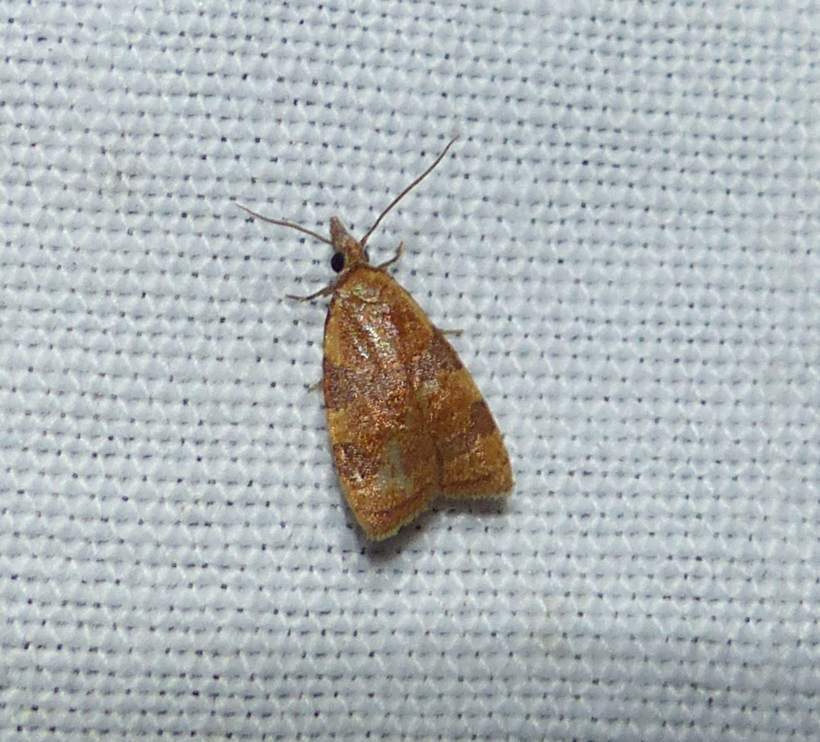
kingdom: Animalia
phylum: Arthropoda
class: Insecta
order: Lepidoptera
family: Tortricidae
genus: Cenopis
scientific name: Cenopis diluticostana
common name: Spring dead-leaf roller moth
